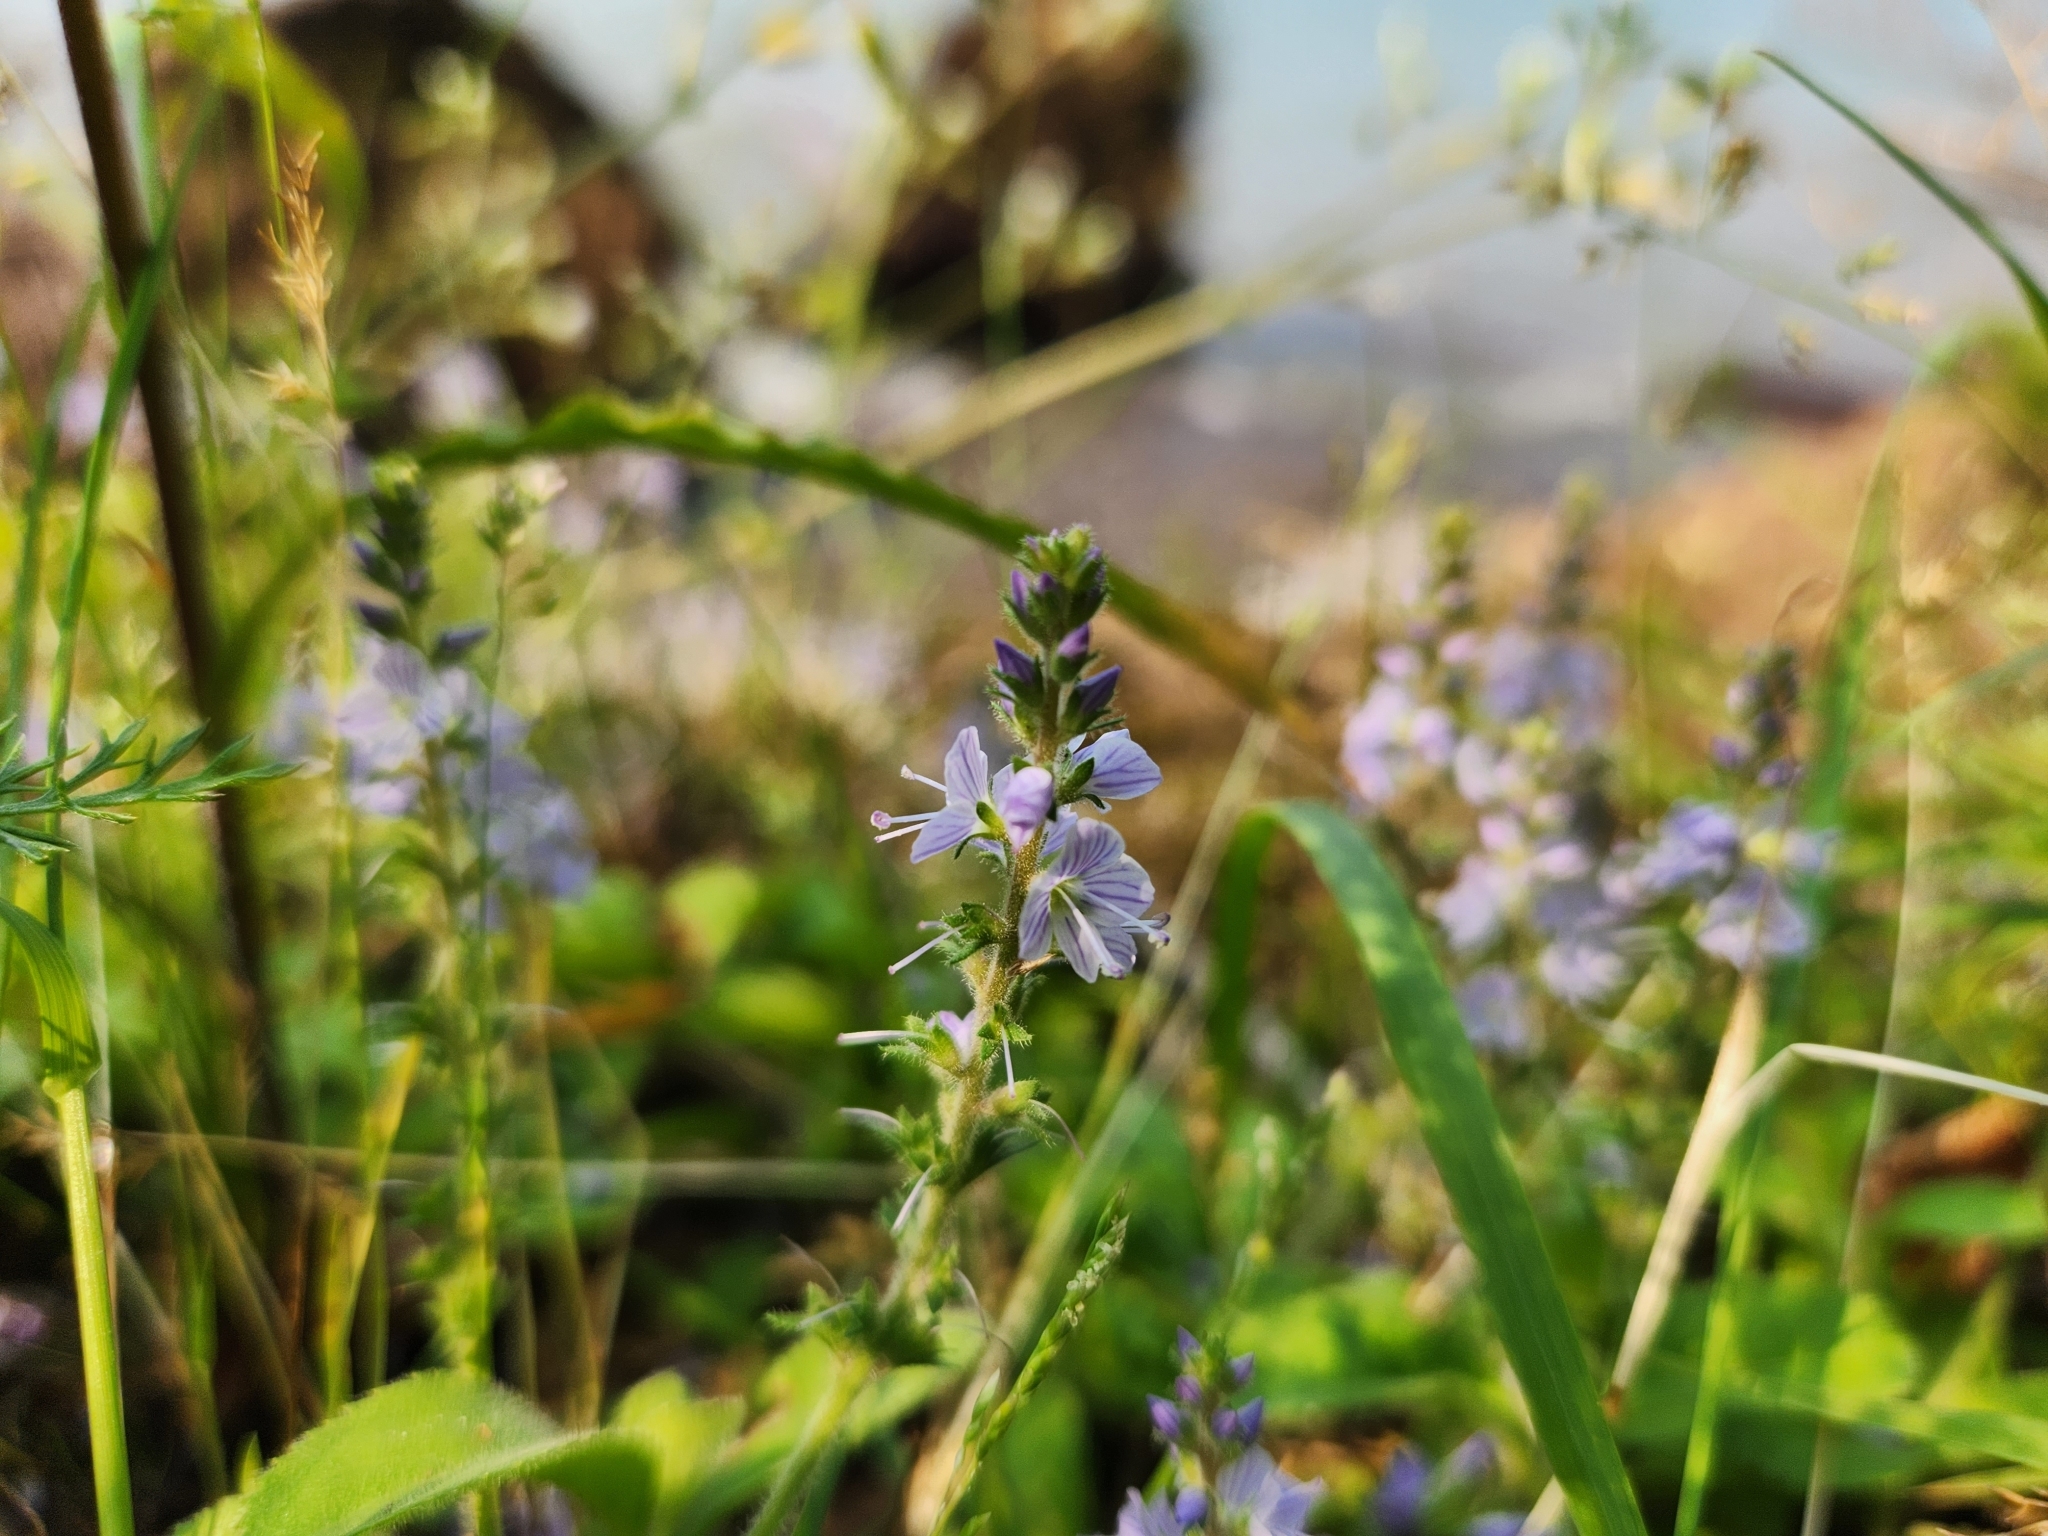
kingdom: Plantae
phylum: Tracheophyta
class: Magnoliopsida
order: Lamiales
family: Plantaginaceae
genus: Veronica
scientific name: Veronica officinalis
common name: Common speedwell
